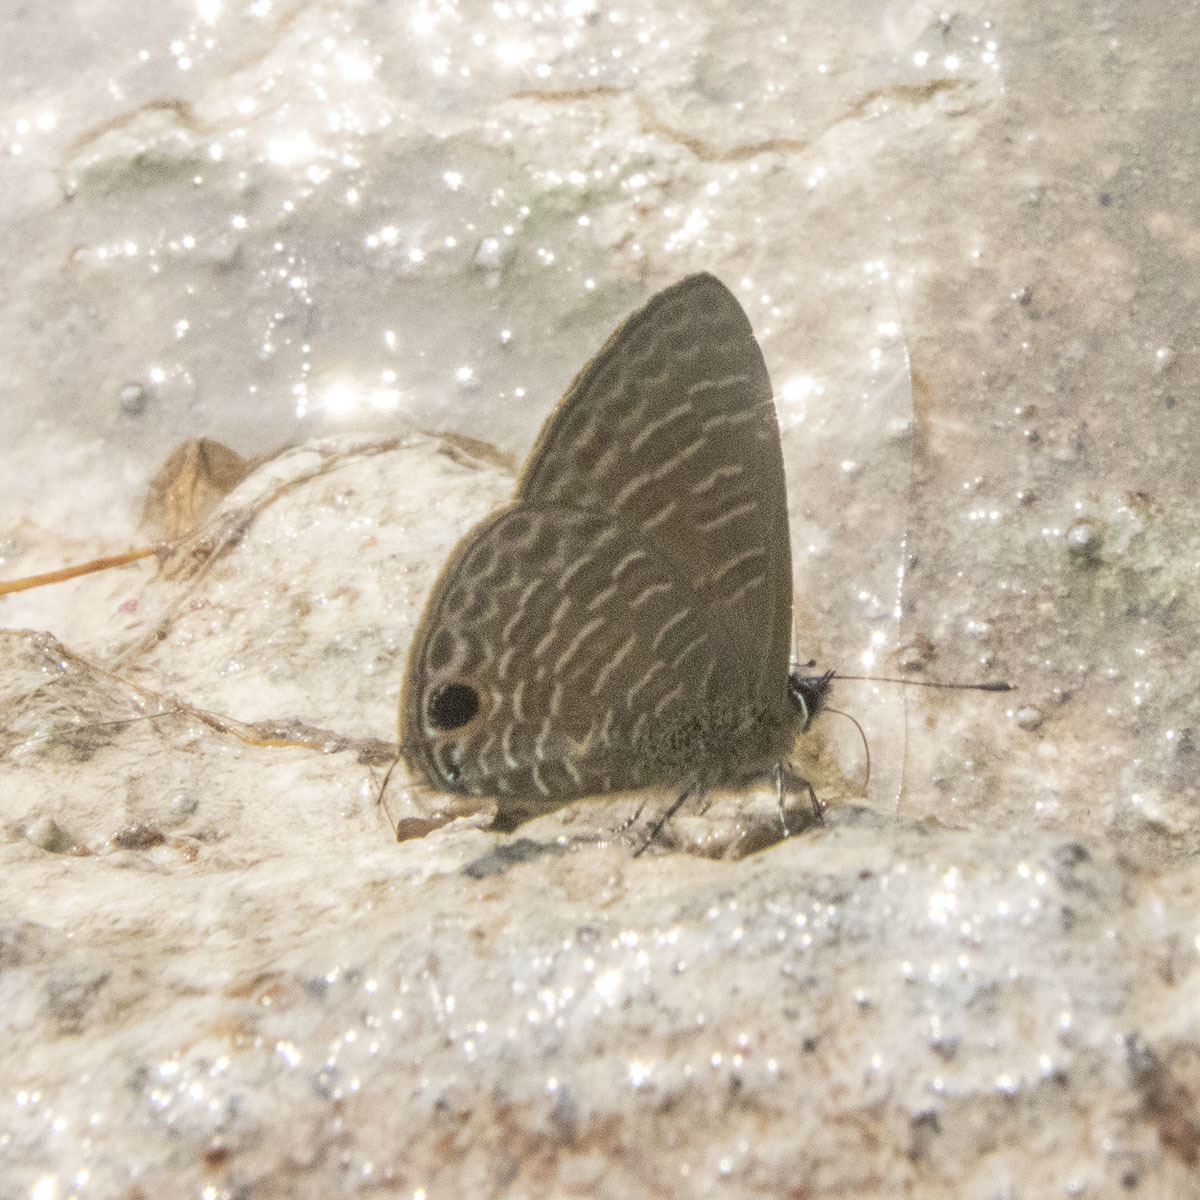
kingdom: Animalia
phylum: Arthropoda
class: Insecta
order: Lepidoptera
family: Lycaenidae
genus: Nacaduba
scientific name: Nacaduba kurava
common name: Transparent 6-line blue
